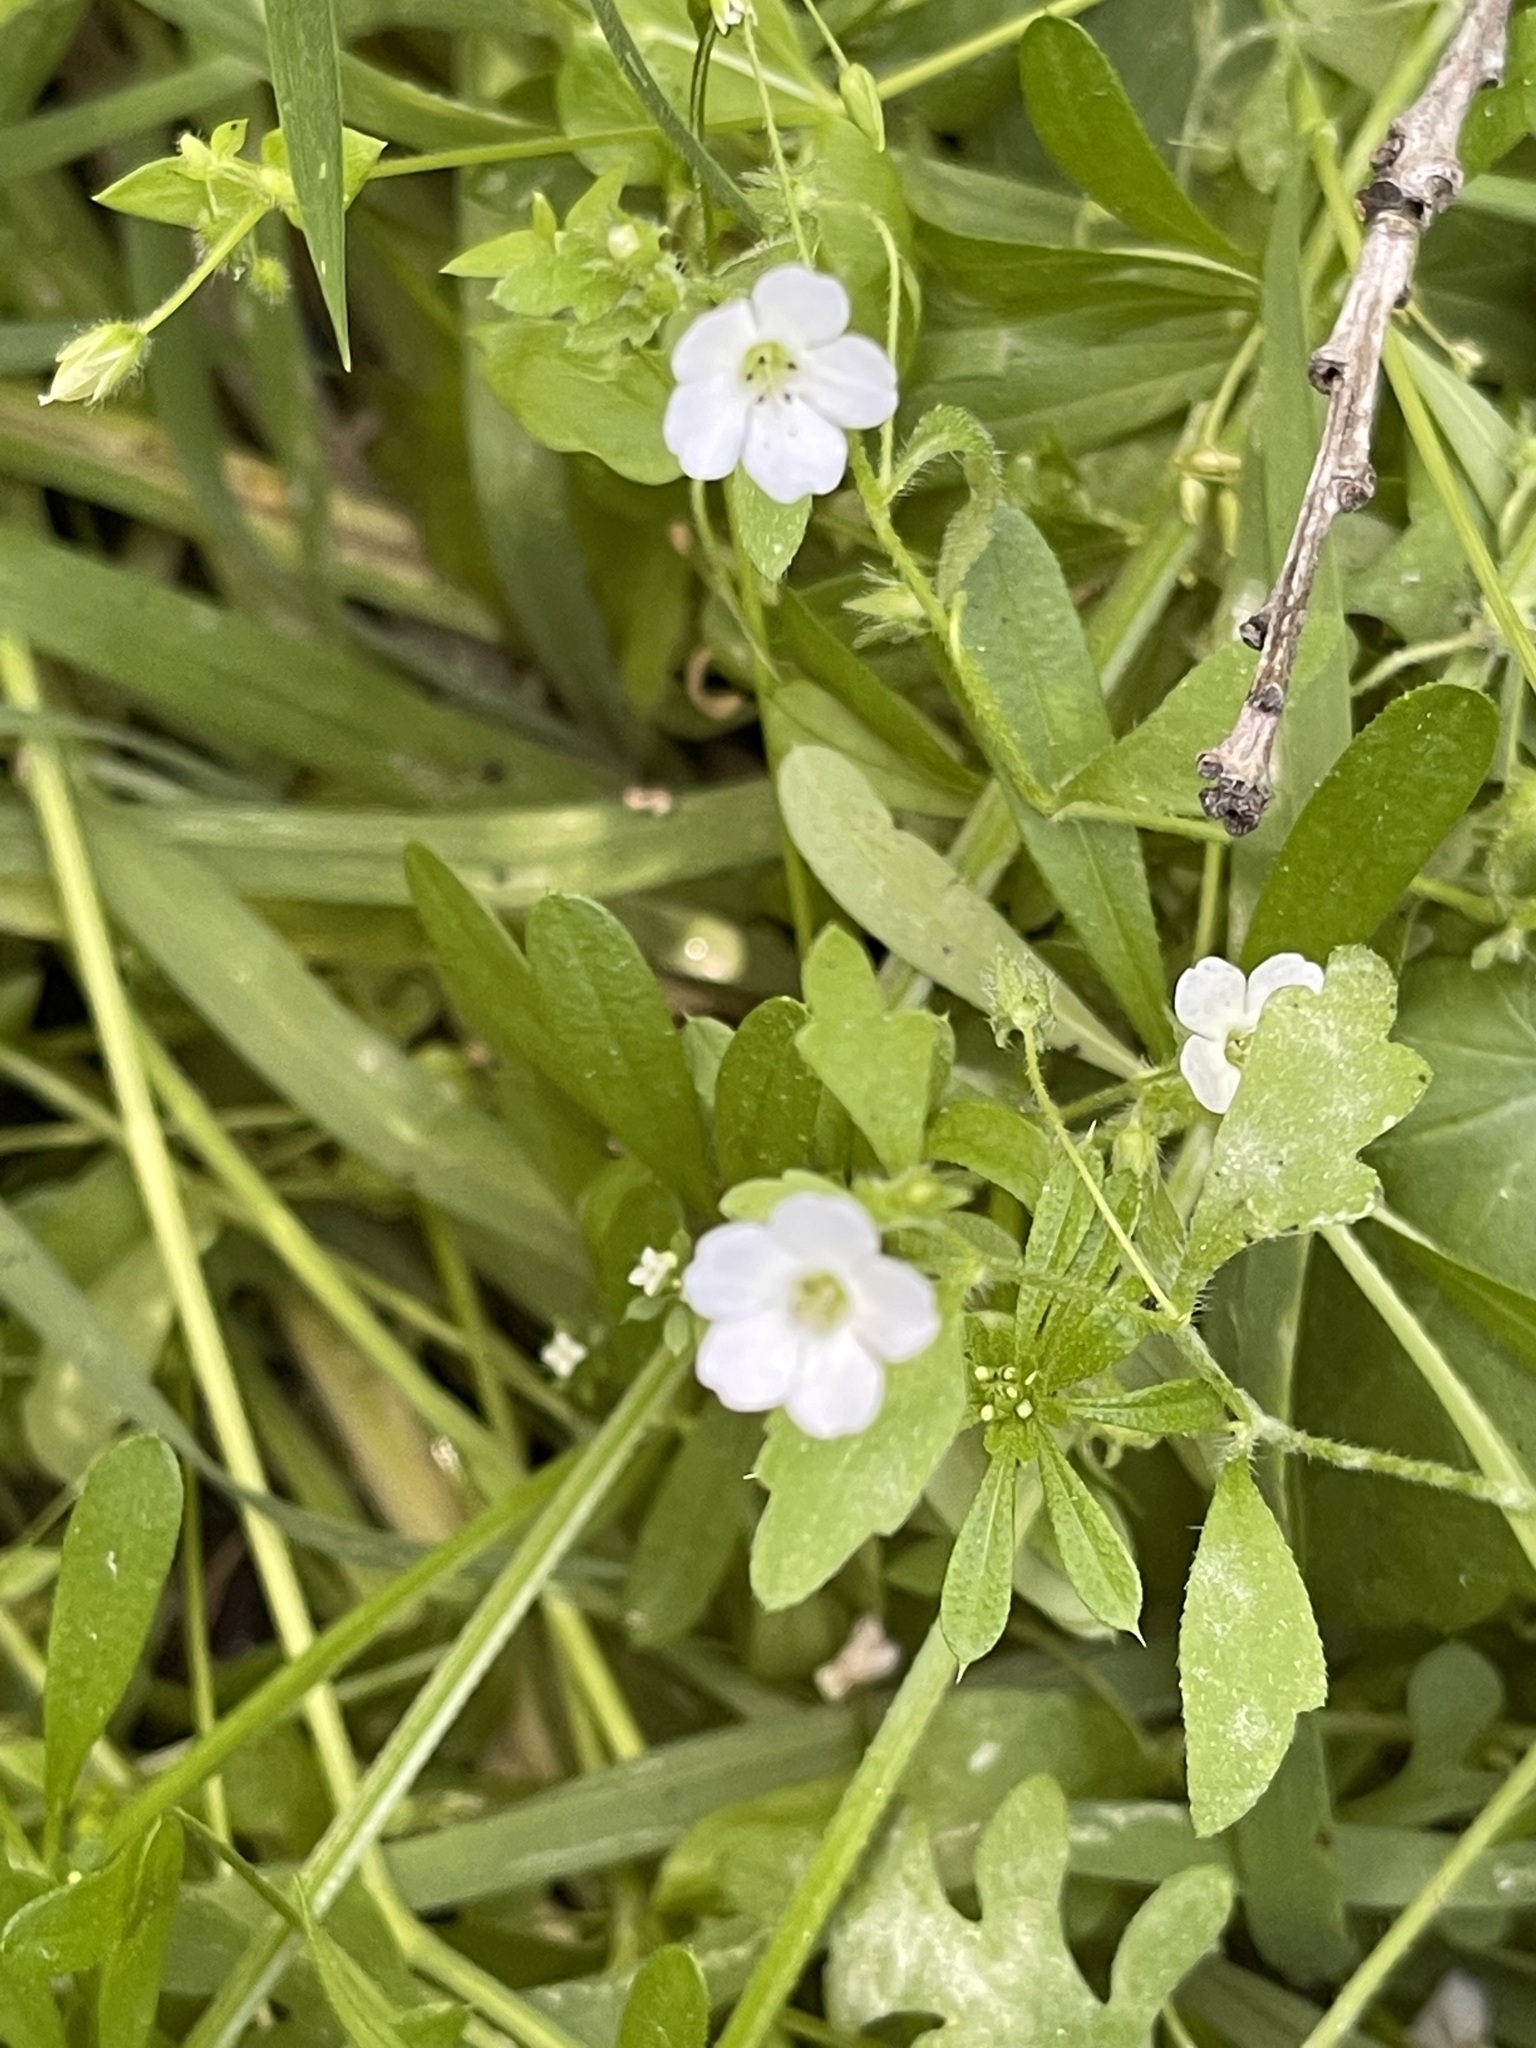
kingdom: Plantae
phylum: Tracheophyta
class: Magnoliopsida
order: Boraginales
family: Hydrophyllaceae
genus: Nemophila
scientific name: Nemophila heterophylla
